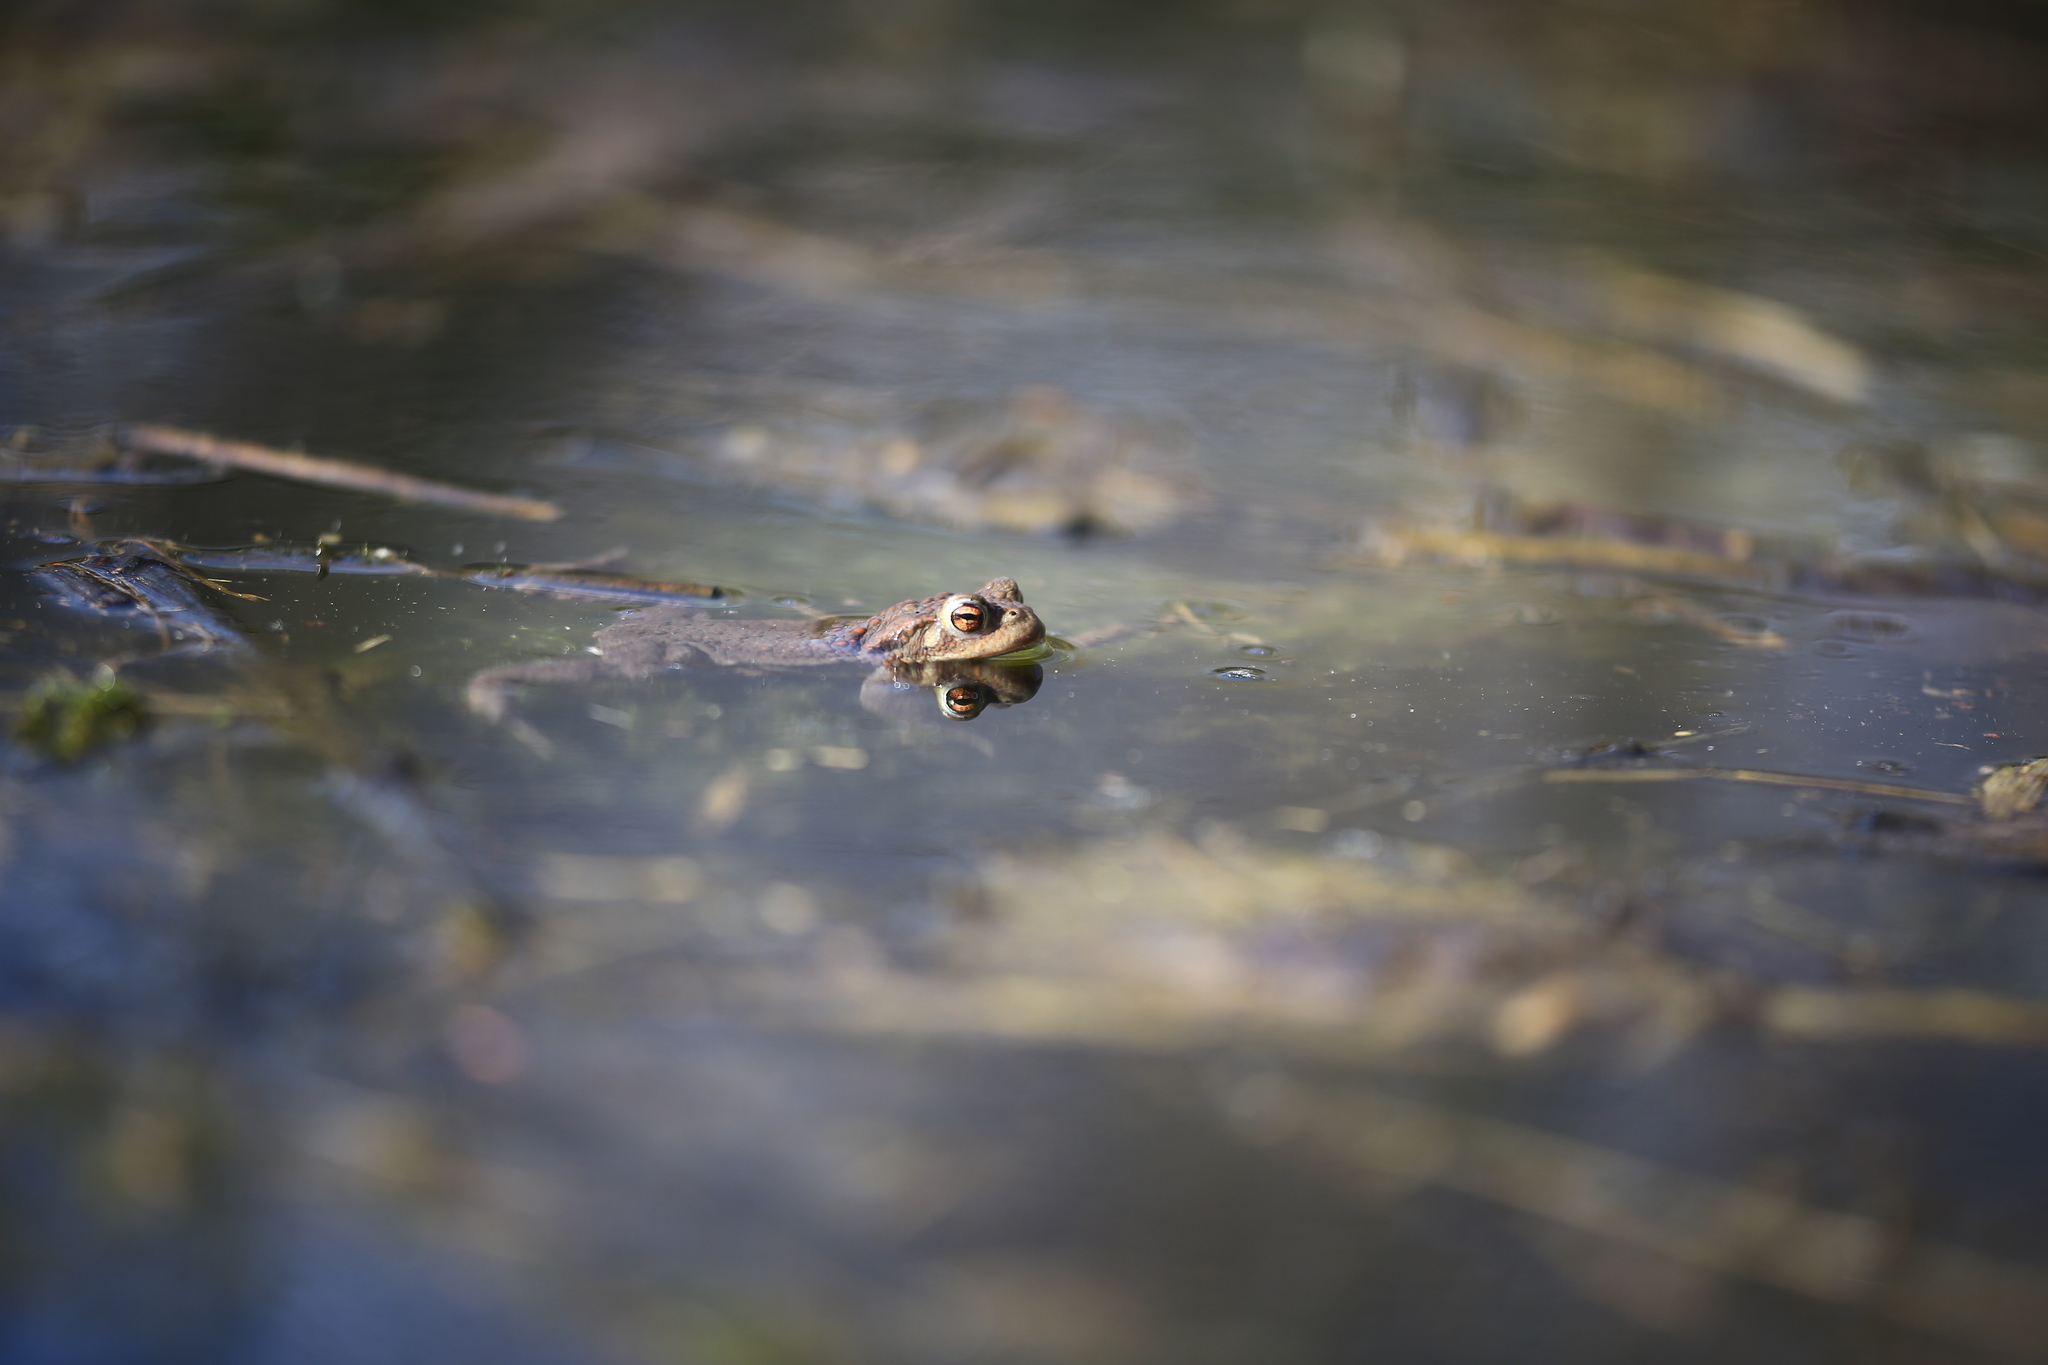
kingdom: Animalia
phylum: Chordata
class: Amphibia
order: Anura
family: Bufonidae
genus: Bufo
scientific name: Bufo bufo
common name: Common toad
